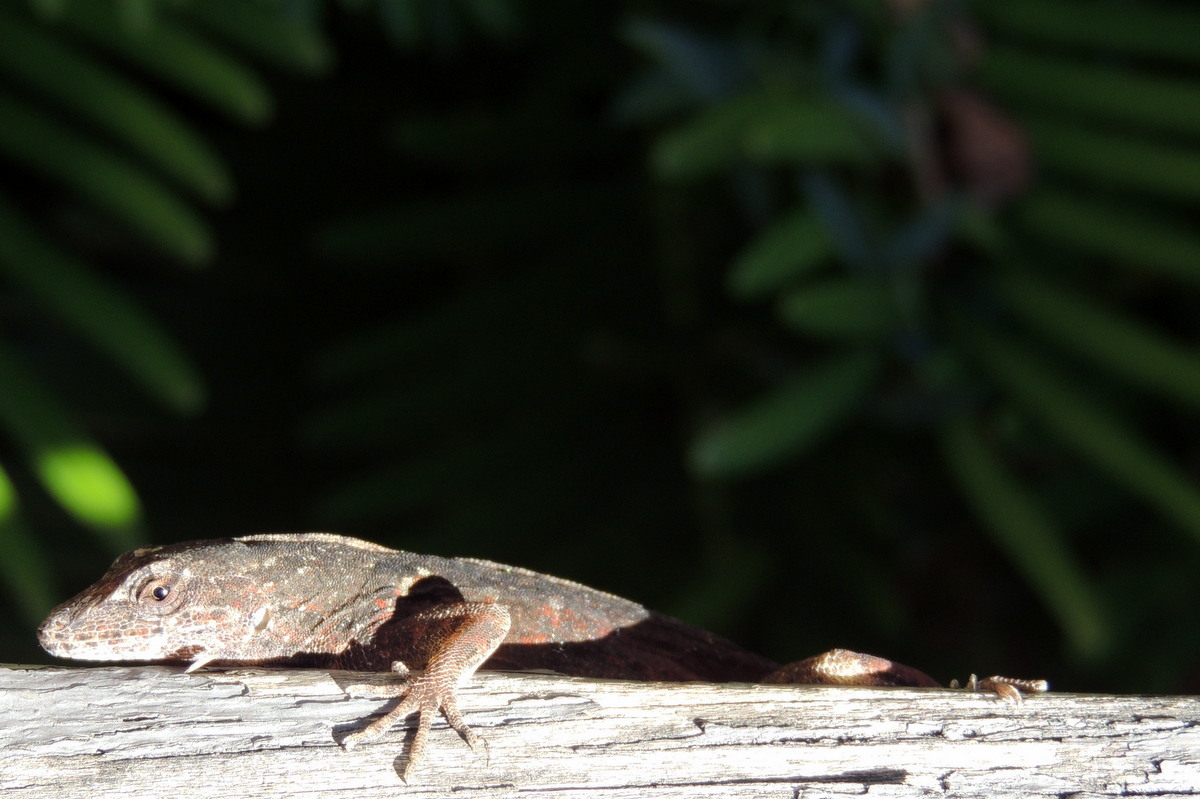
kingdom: Animalia
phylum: Chordata
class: Squamata
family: Dactyloidae
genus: Anolis
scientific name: Anolis sagrei
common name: Brown anole
